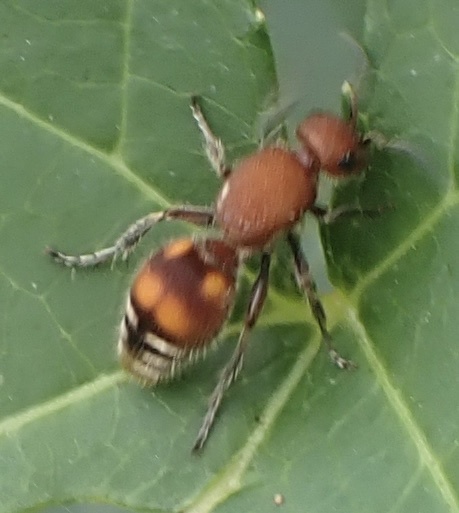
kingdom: Animalia
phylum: Arthropoda
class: Insecta
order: Hymenoptera
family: Mutillidae
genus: Dasymutilla
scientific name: Dasymutilla
